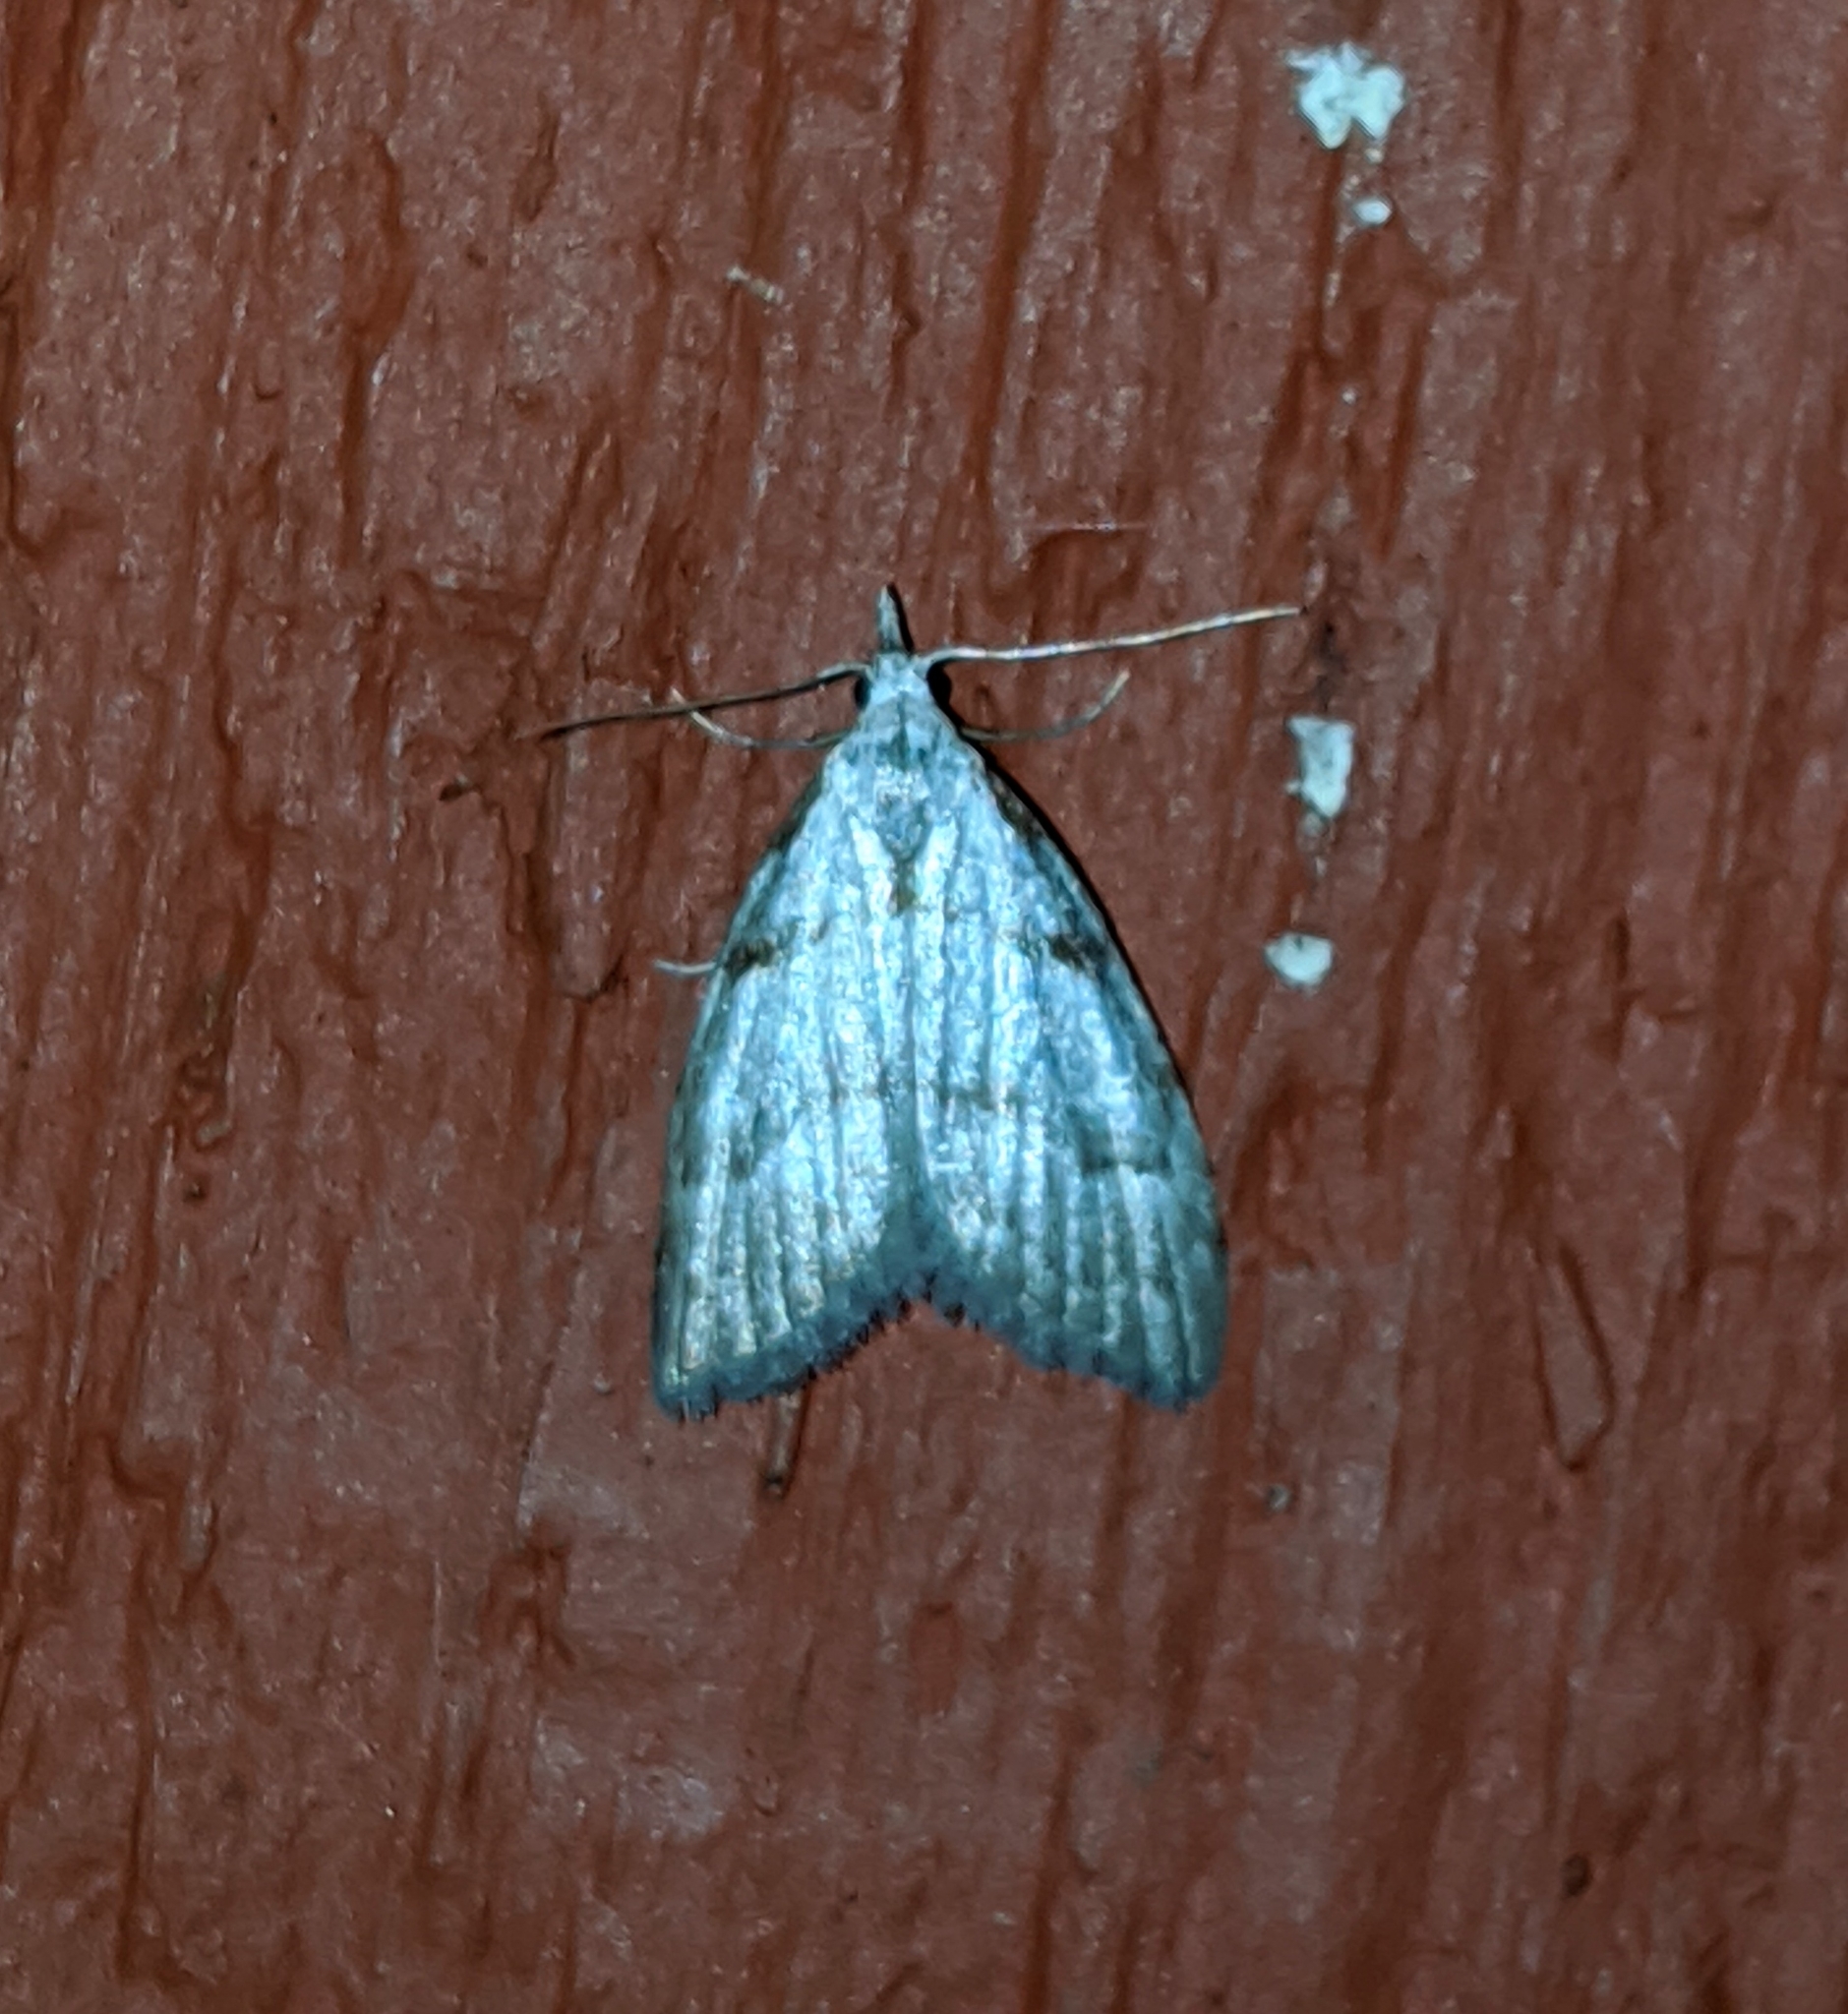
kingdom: Animalia
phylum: Arthropoda
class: Insecta
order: Lepidoptera
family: Nolidae
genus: Nola
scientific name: Nola minna
